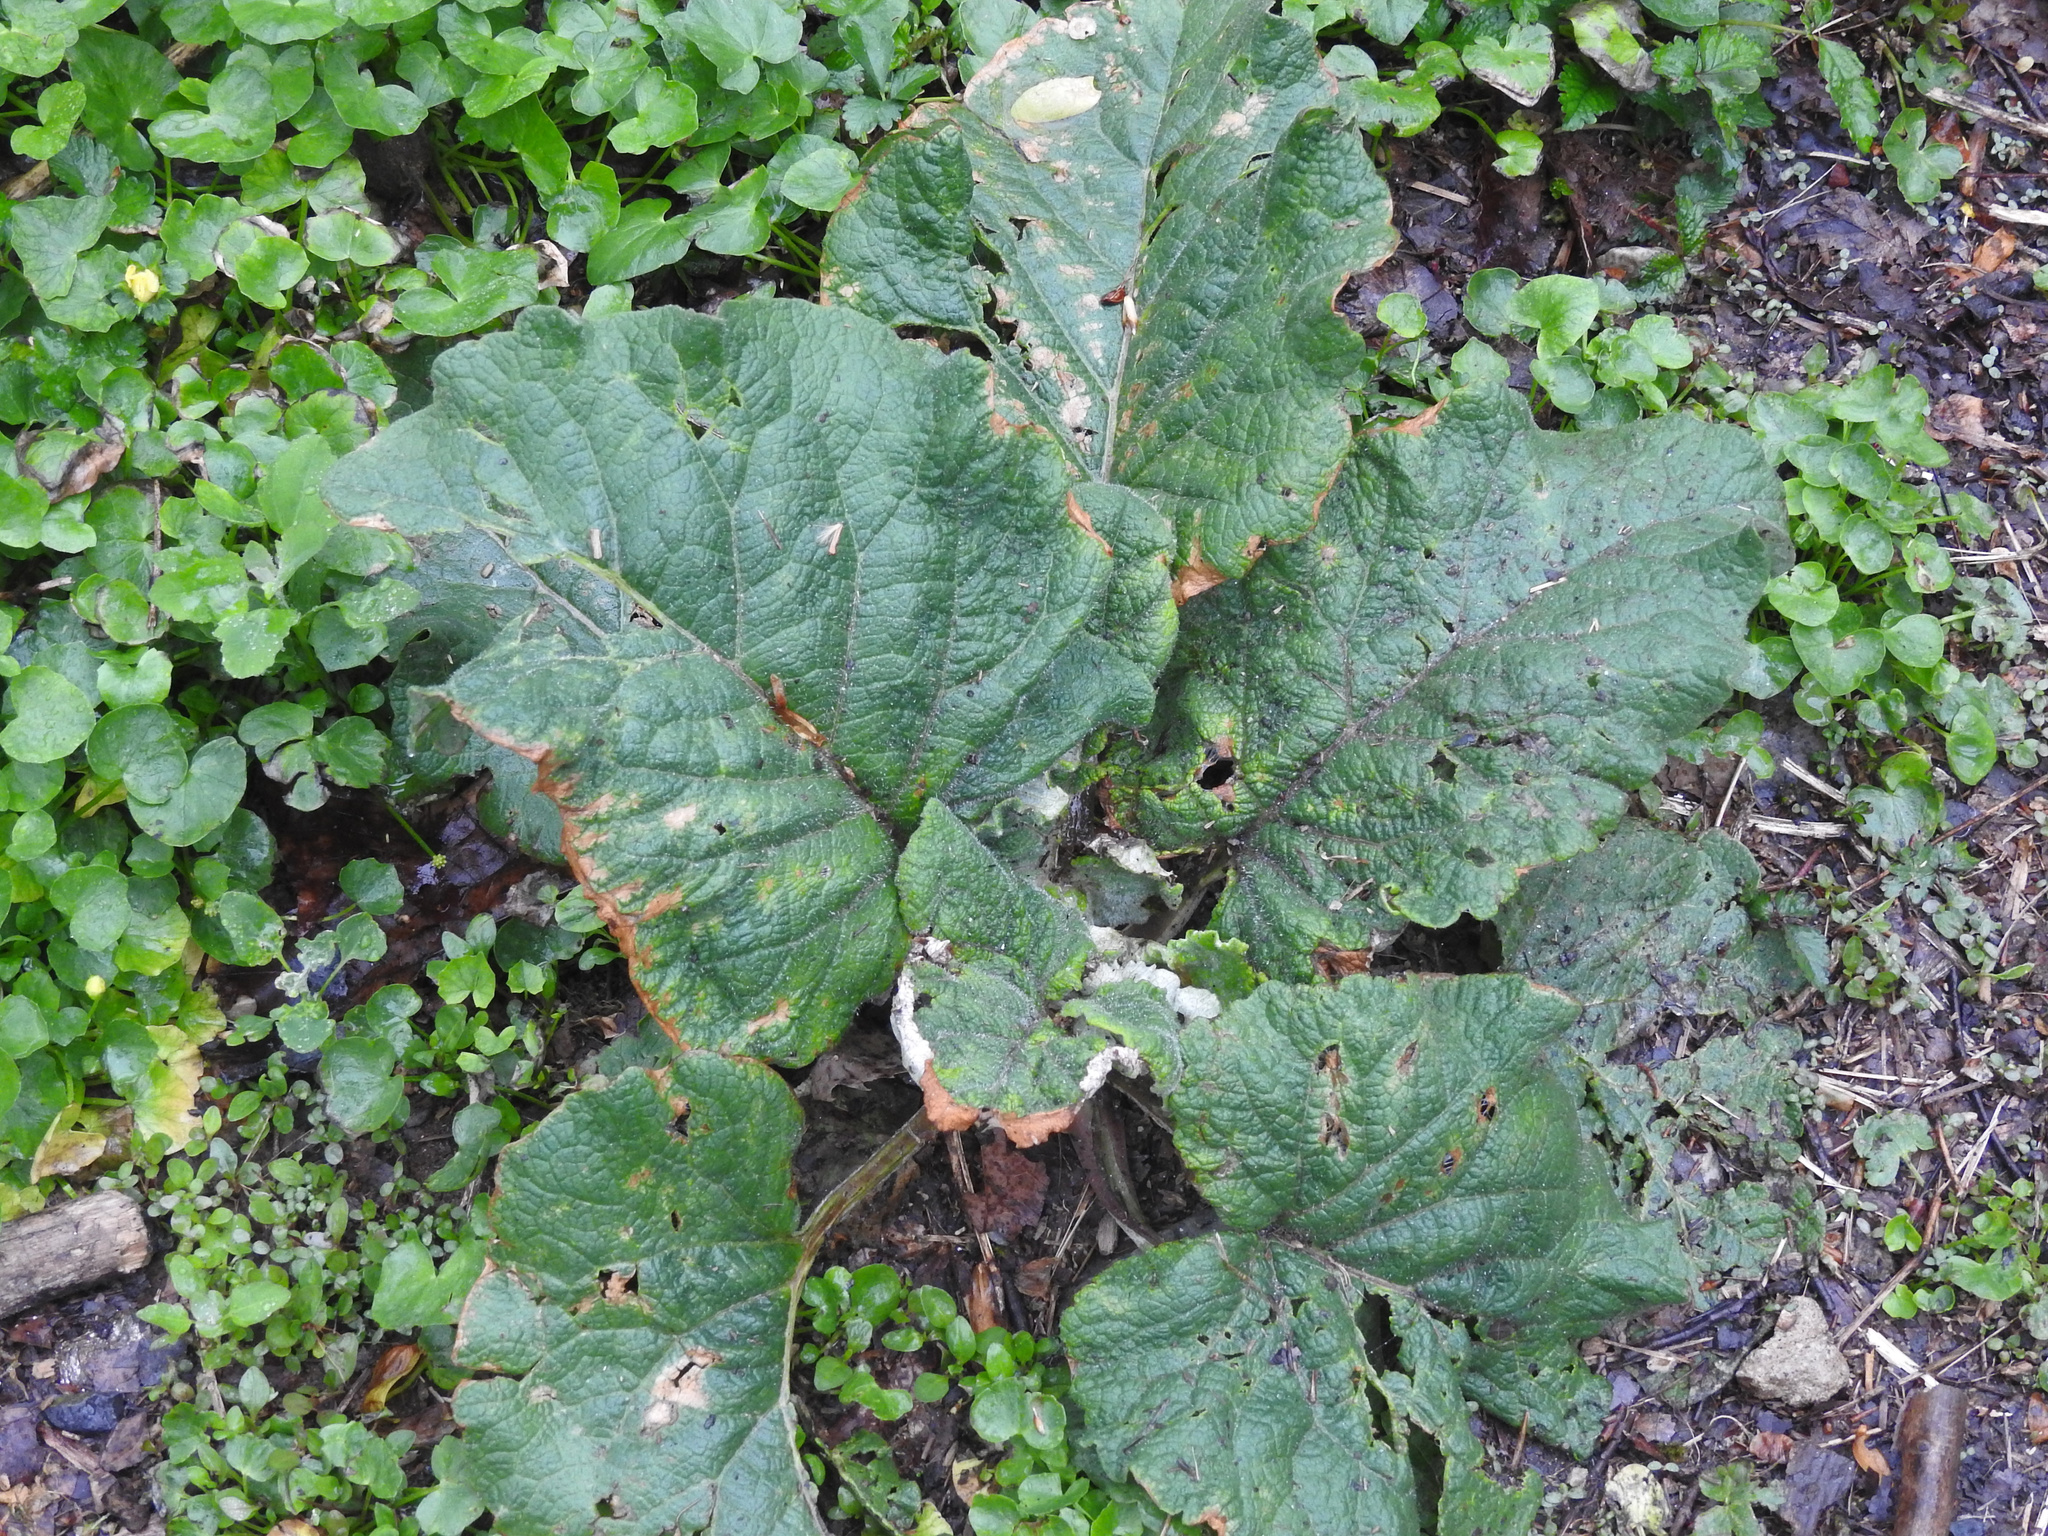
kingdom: Plantae
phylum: Tracheophyta
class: Magnoliopsida
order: Asterales
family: Asteraceae
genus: Arctium
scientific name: Arctium
